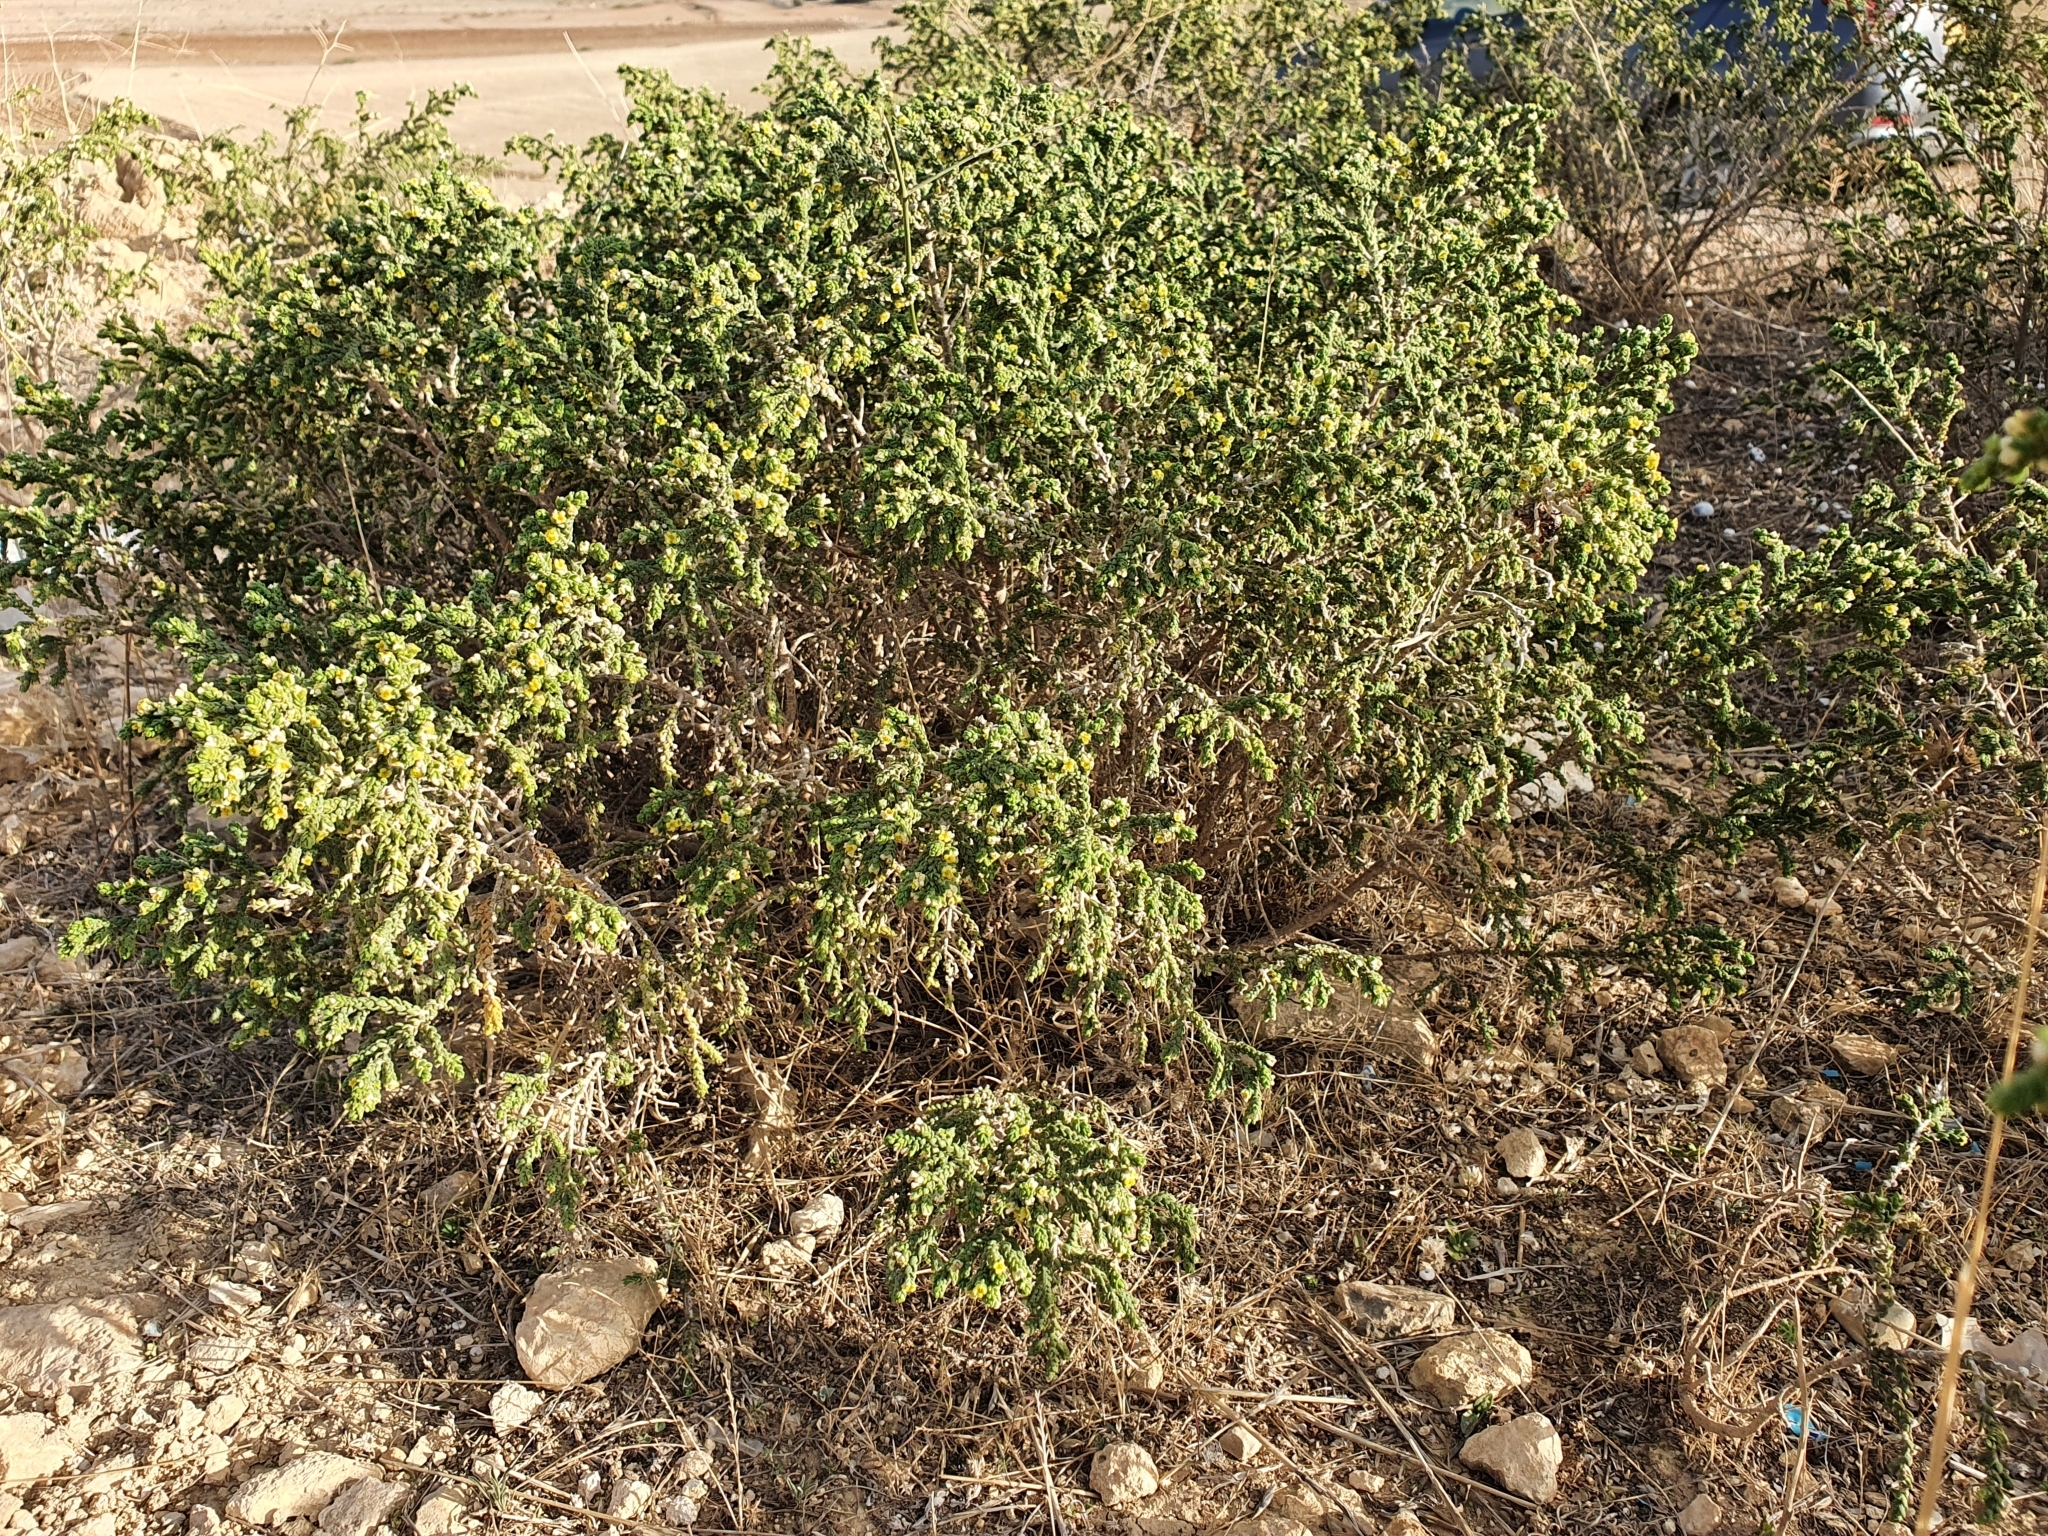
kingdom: Plantae
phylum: Tracheophyta
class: Magnoliopsida
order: Malvales
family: Thymelaeaceae
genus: Thymelaea
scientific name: Thymelaea hirsuta
